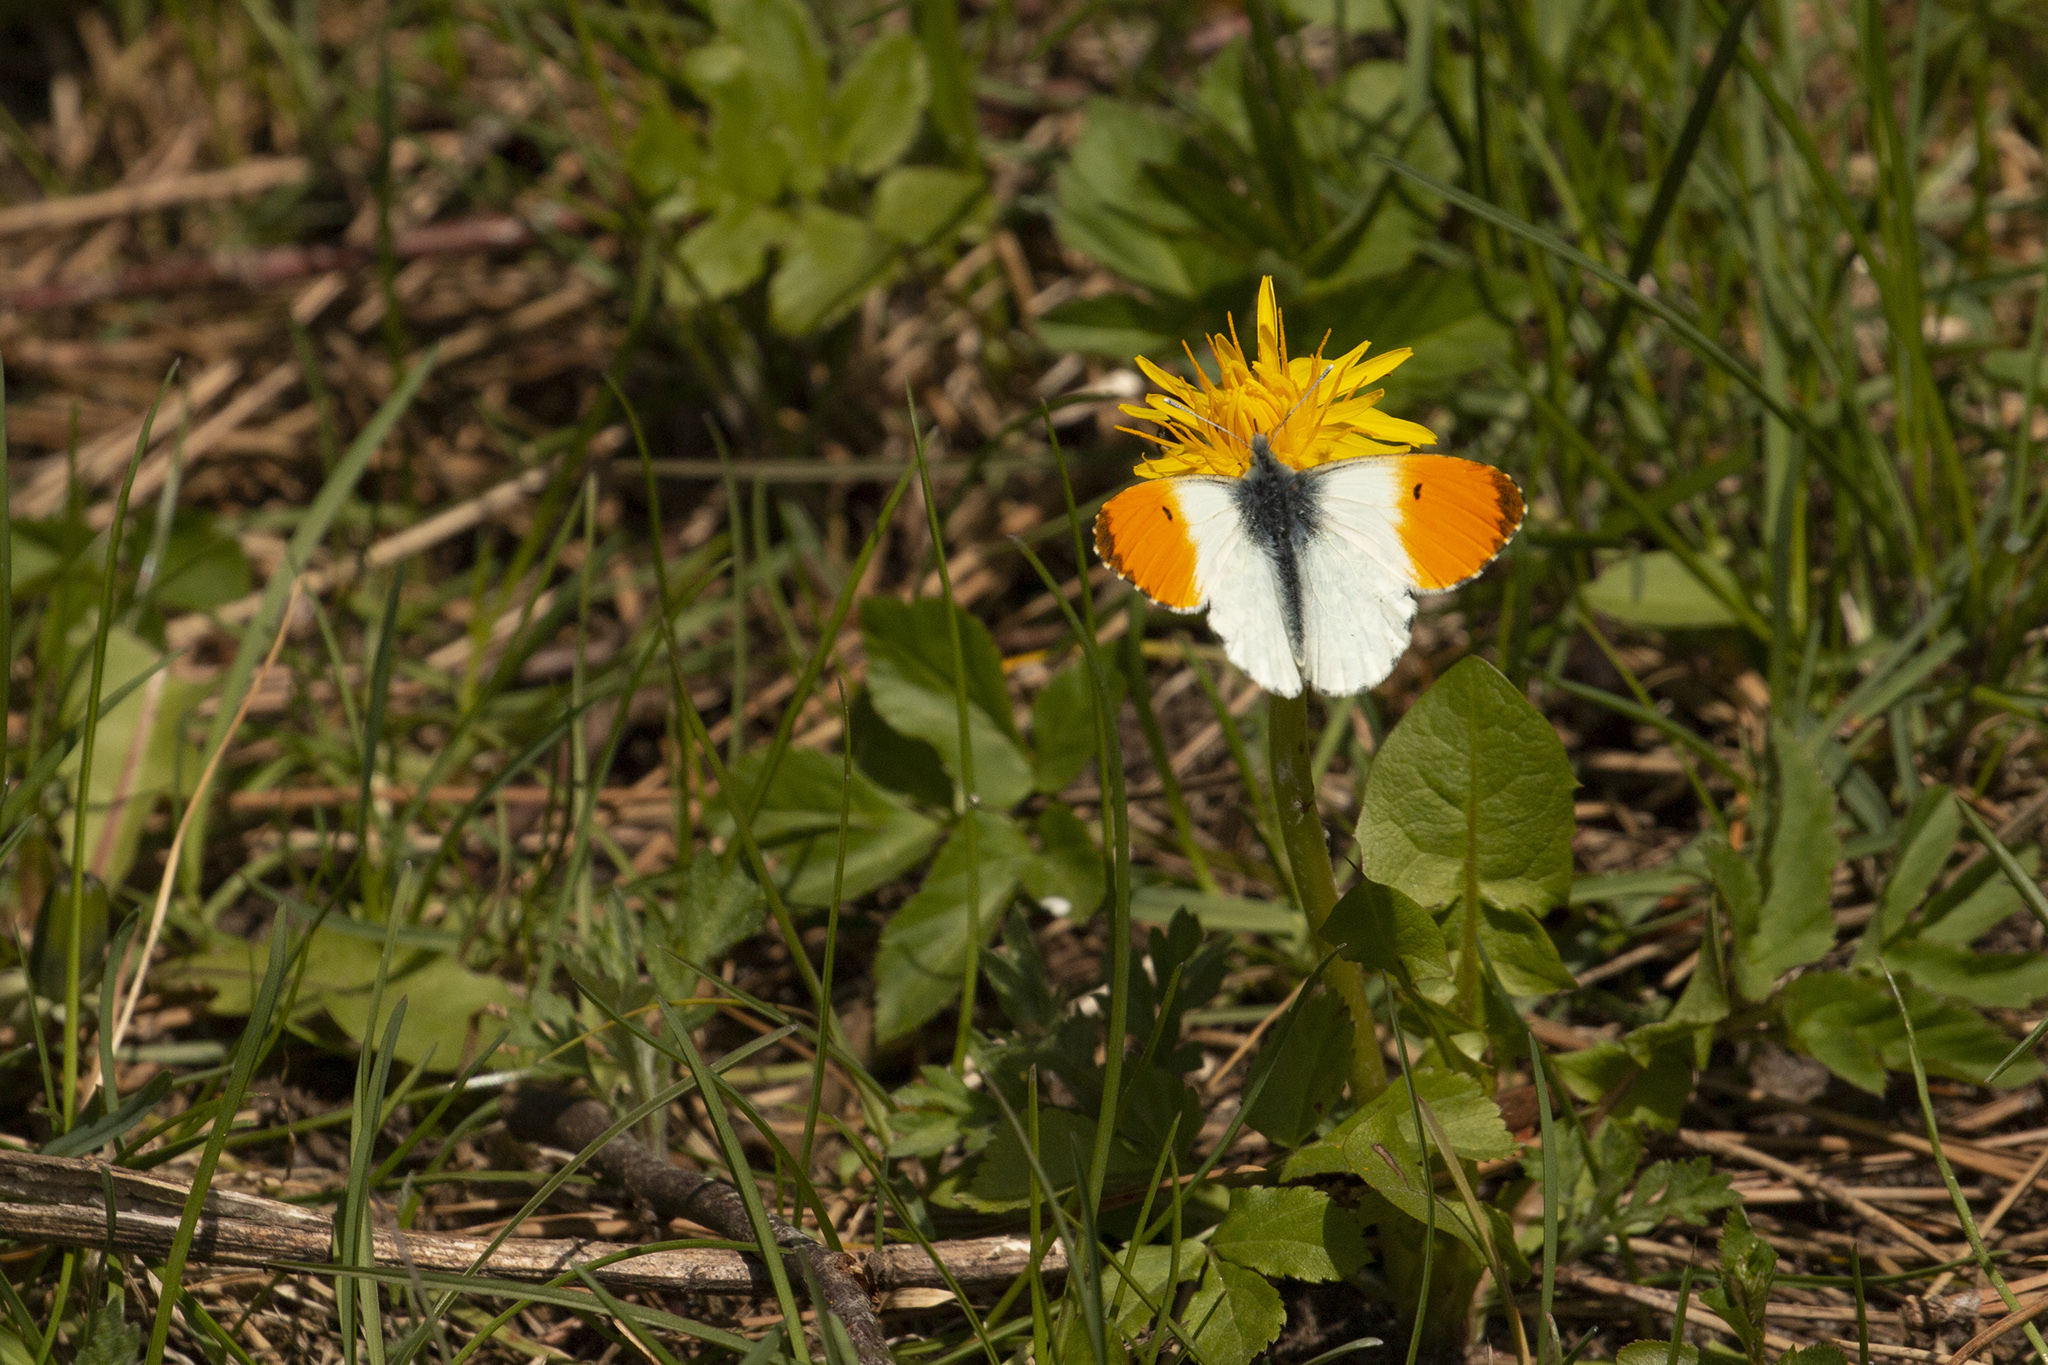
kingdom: Animalia
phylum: Arthropoda
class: Insecta
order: Lepidoptera
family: Pieridae
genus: Anthocharis
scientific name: Anthocharis cardamines
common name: Orange-tip
